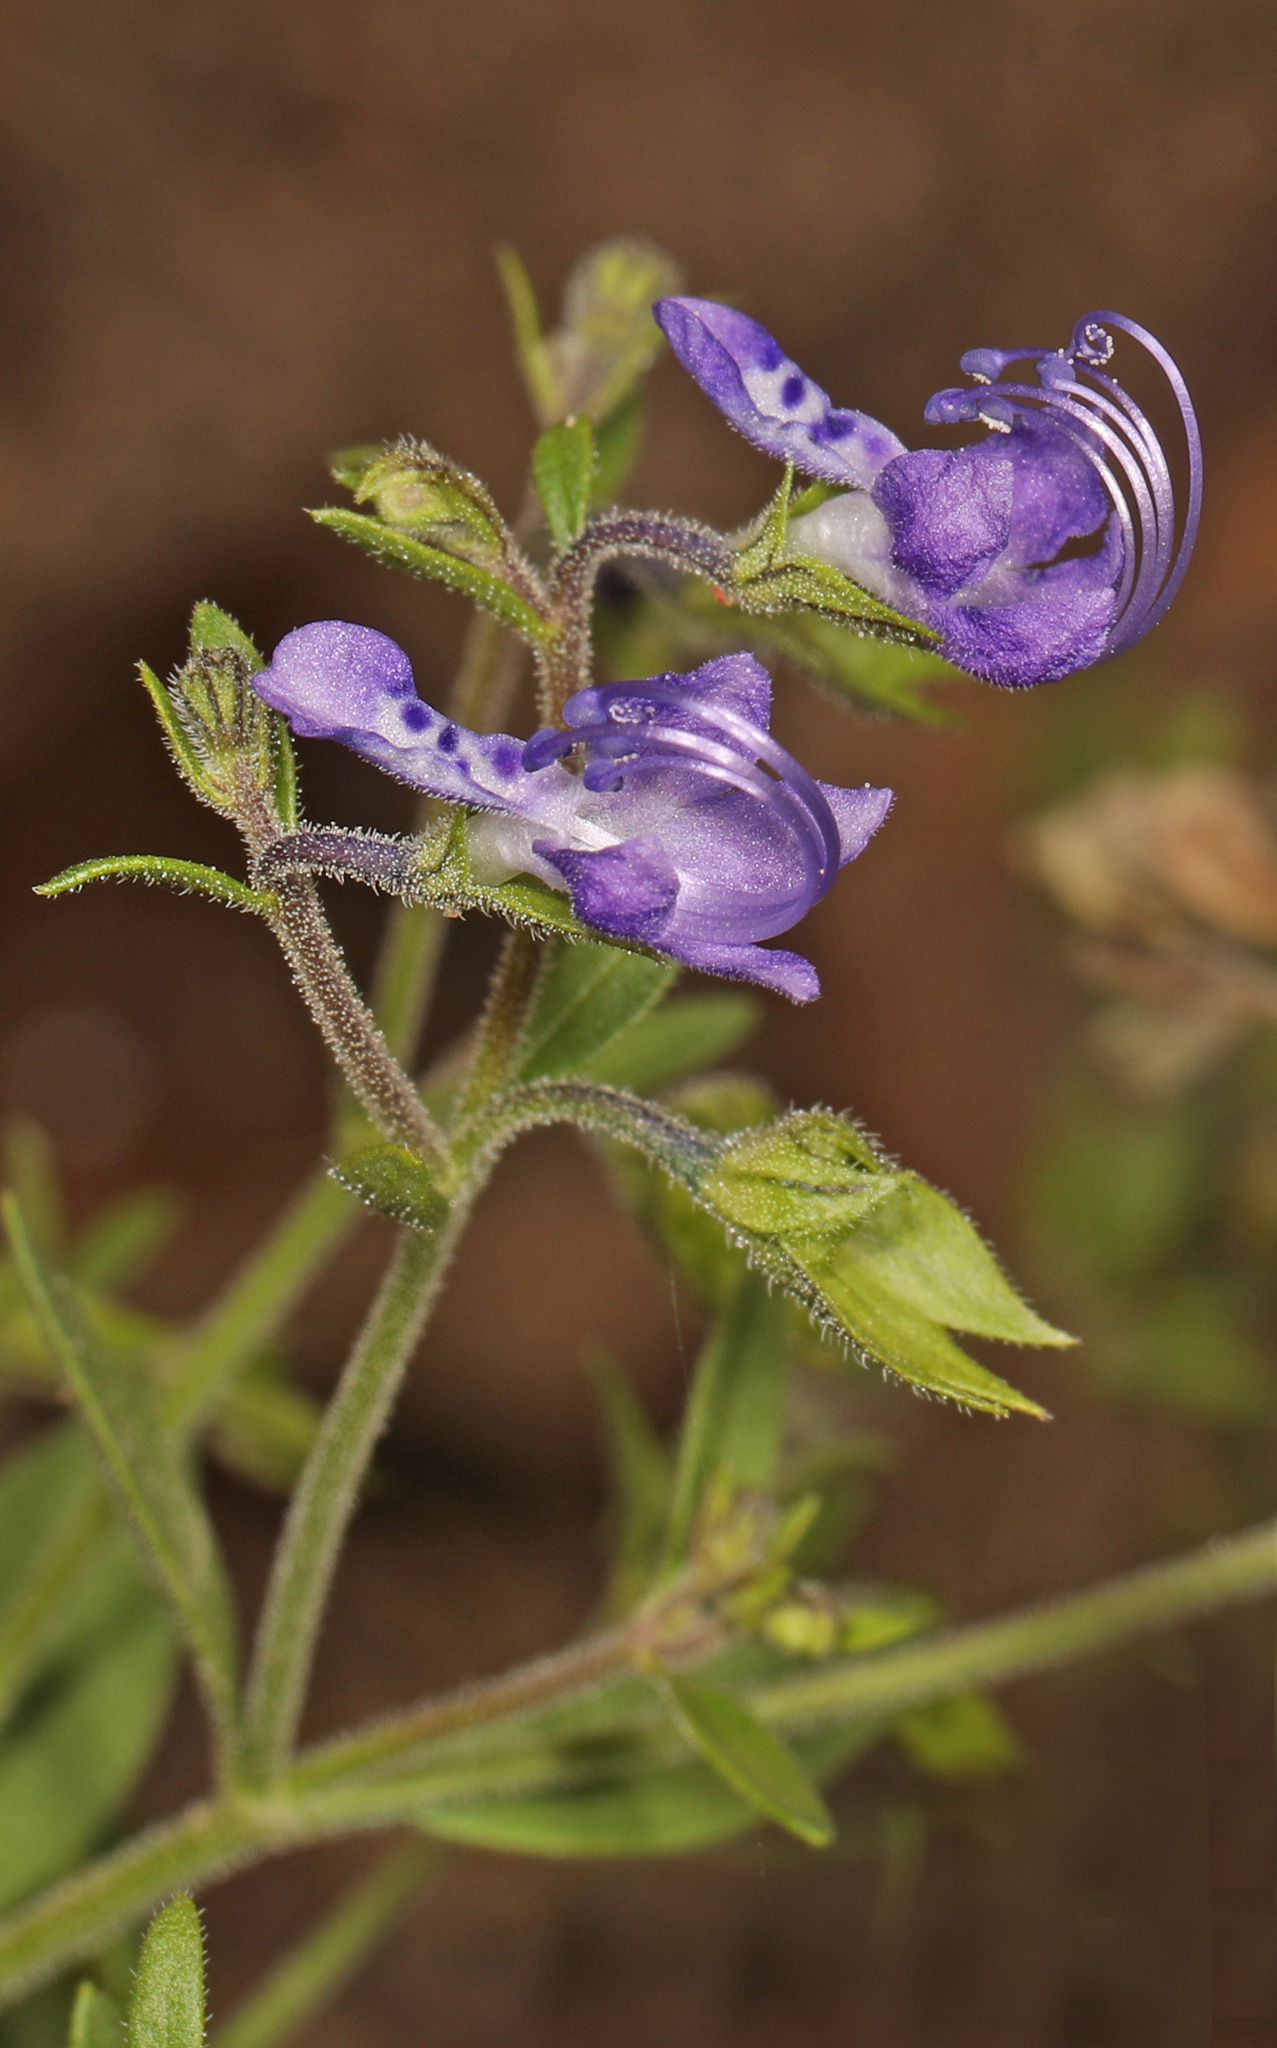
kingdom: Plantae
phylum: Tracheophyta
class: Magnoliopsida
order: Lamiales
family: Lamiaceae
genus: Trichostema
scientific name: Trichostema dichotomum
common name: Bastard pennyroyal
